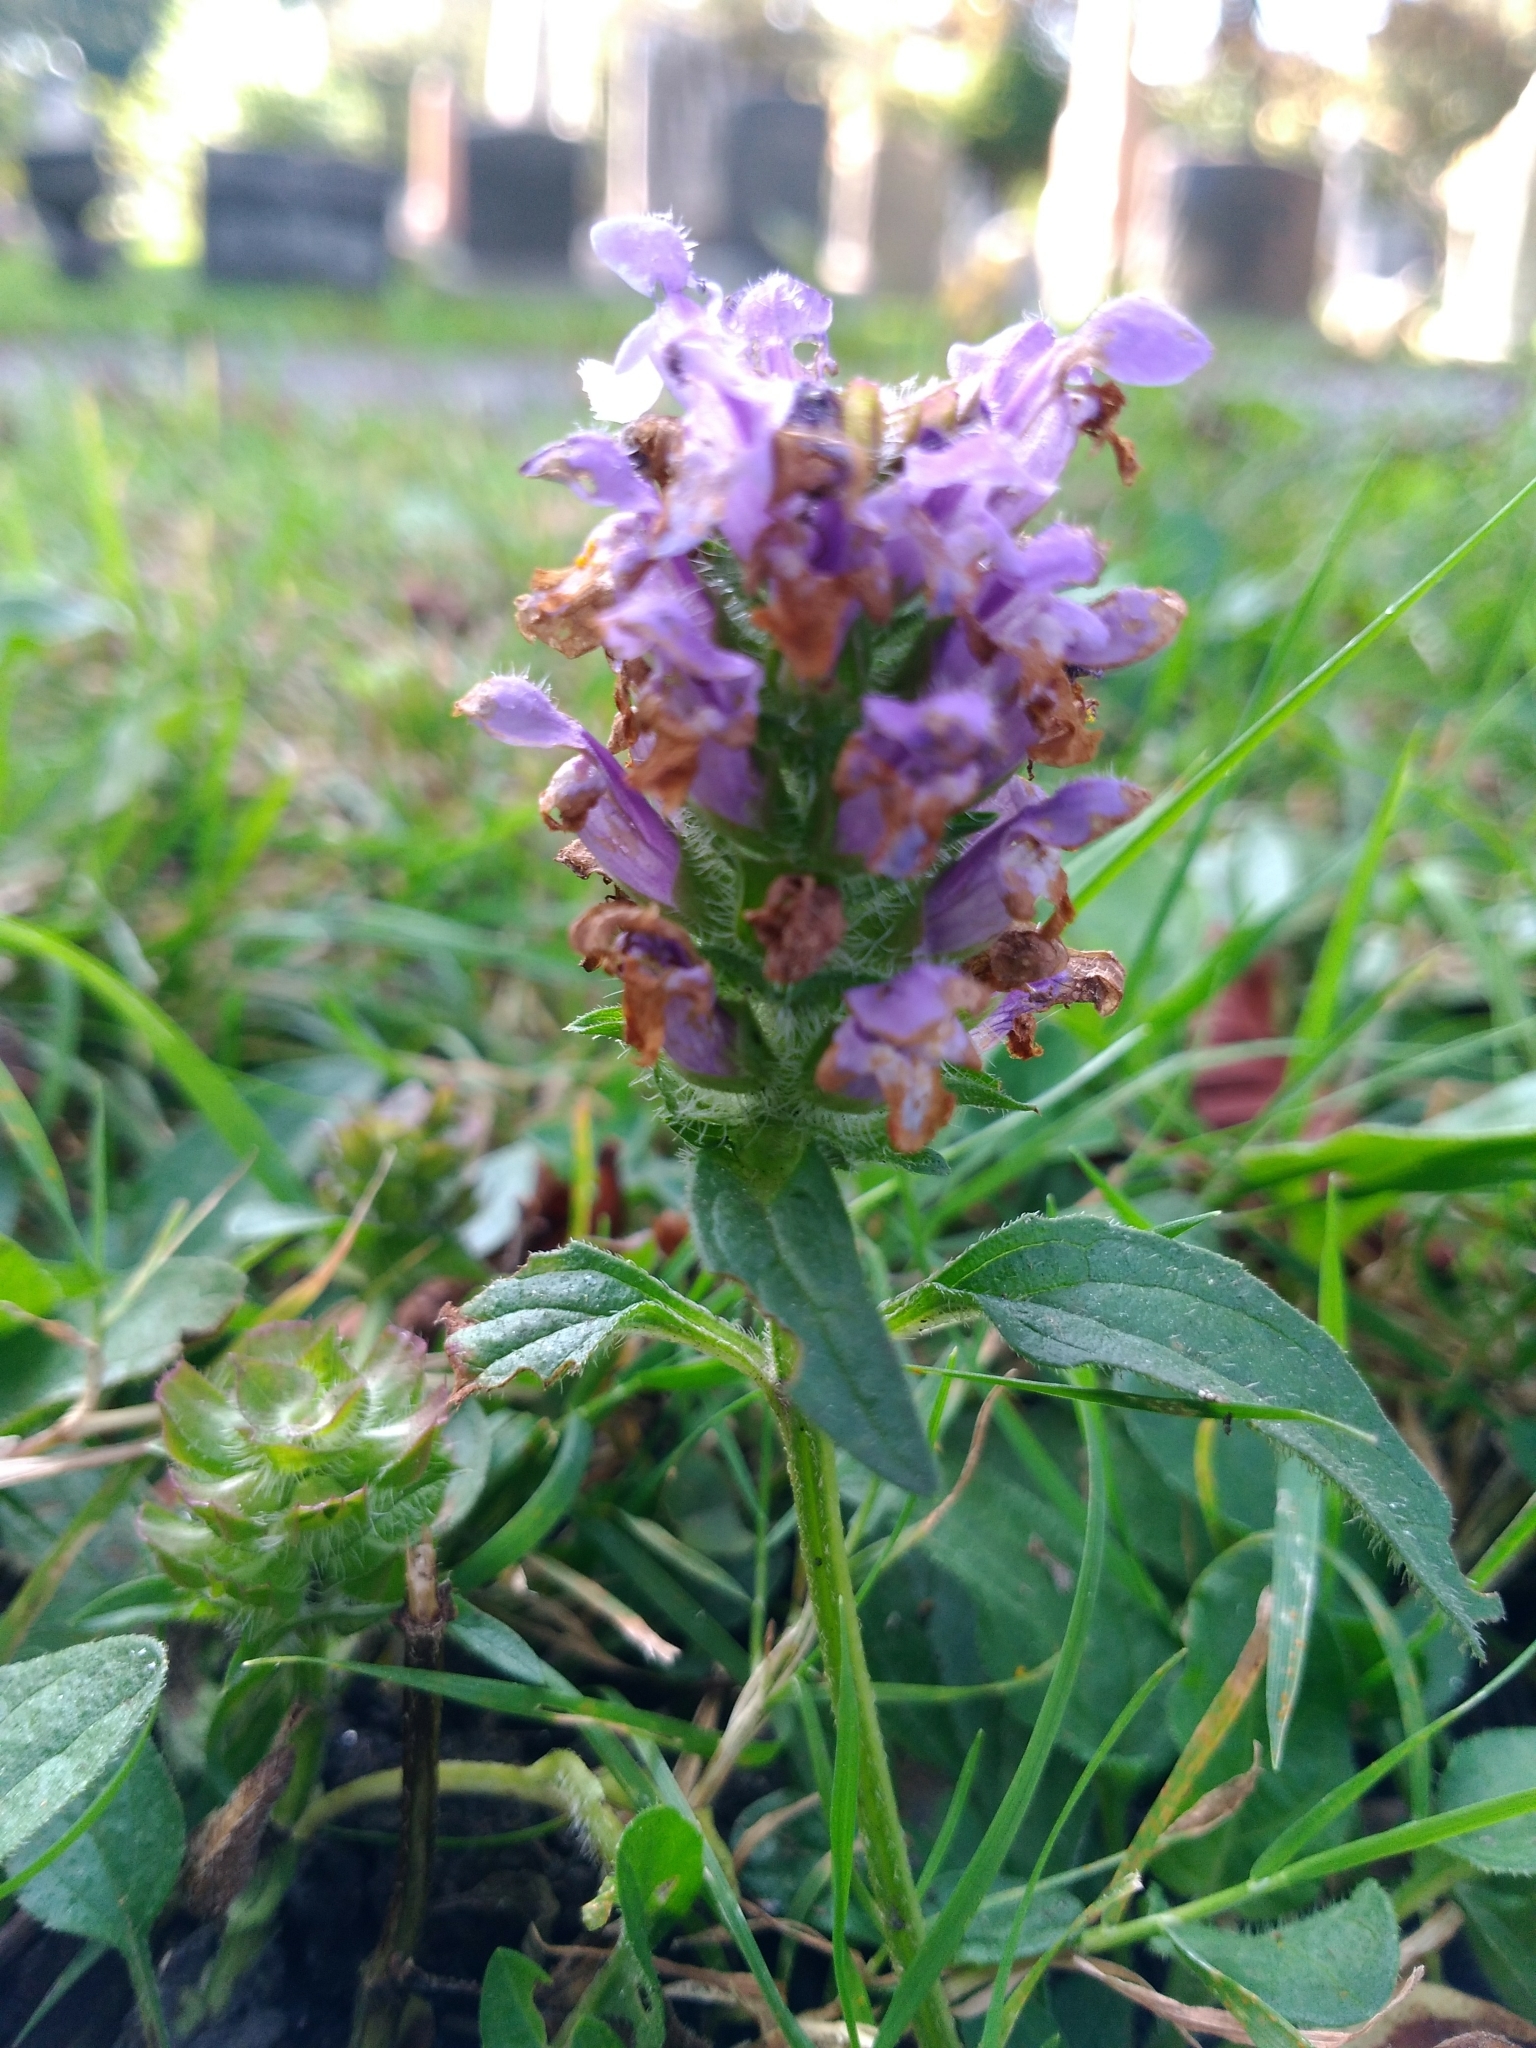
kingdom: Plantae
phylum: Tracheophyta
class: Magnoliopsida
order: Lamiales
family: Lamiaceae
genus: Prunella
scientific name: Prunella vulgaris
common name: Heal-all
